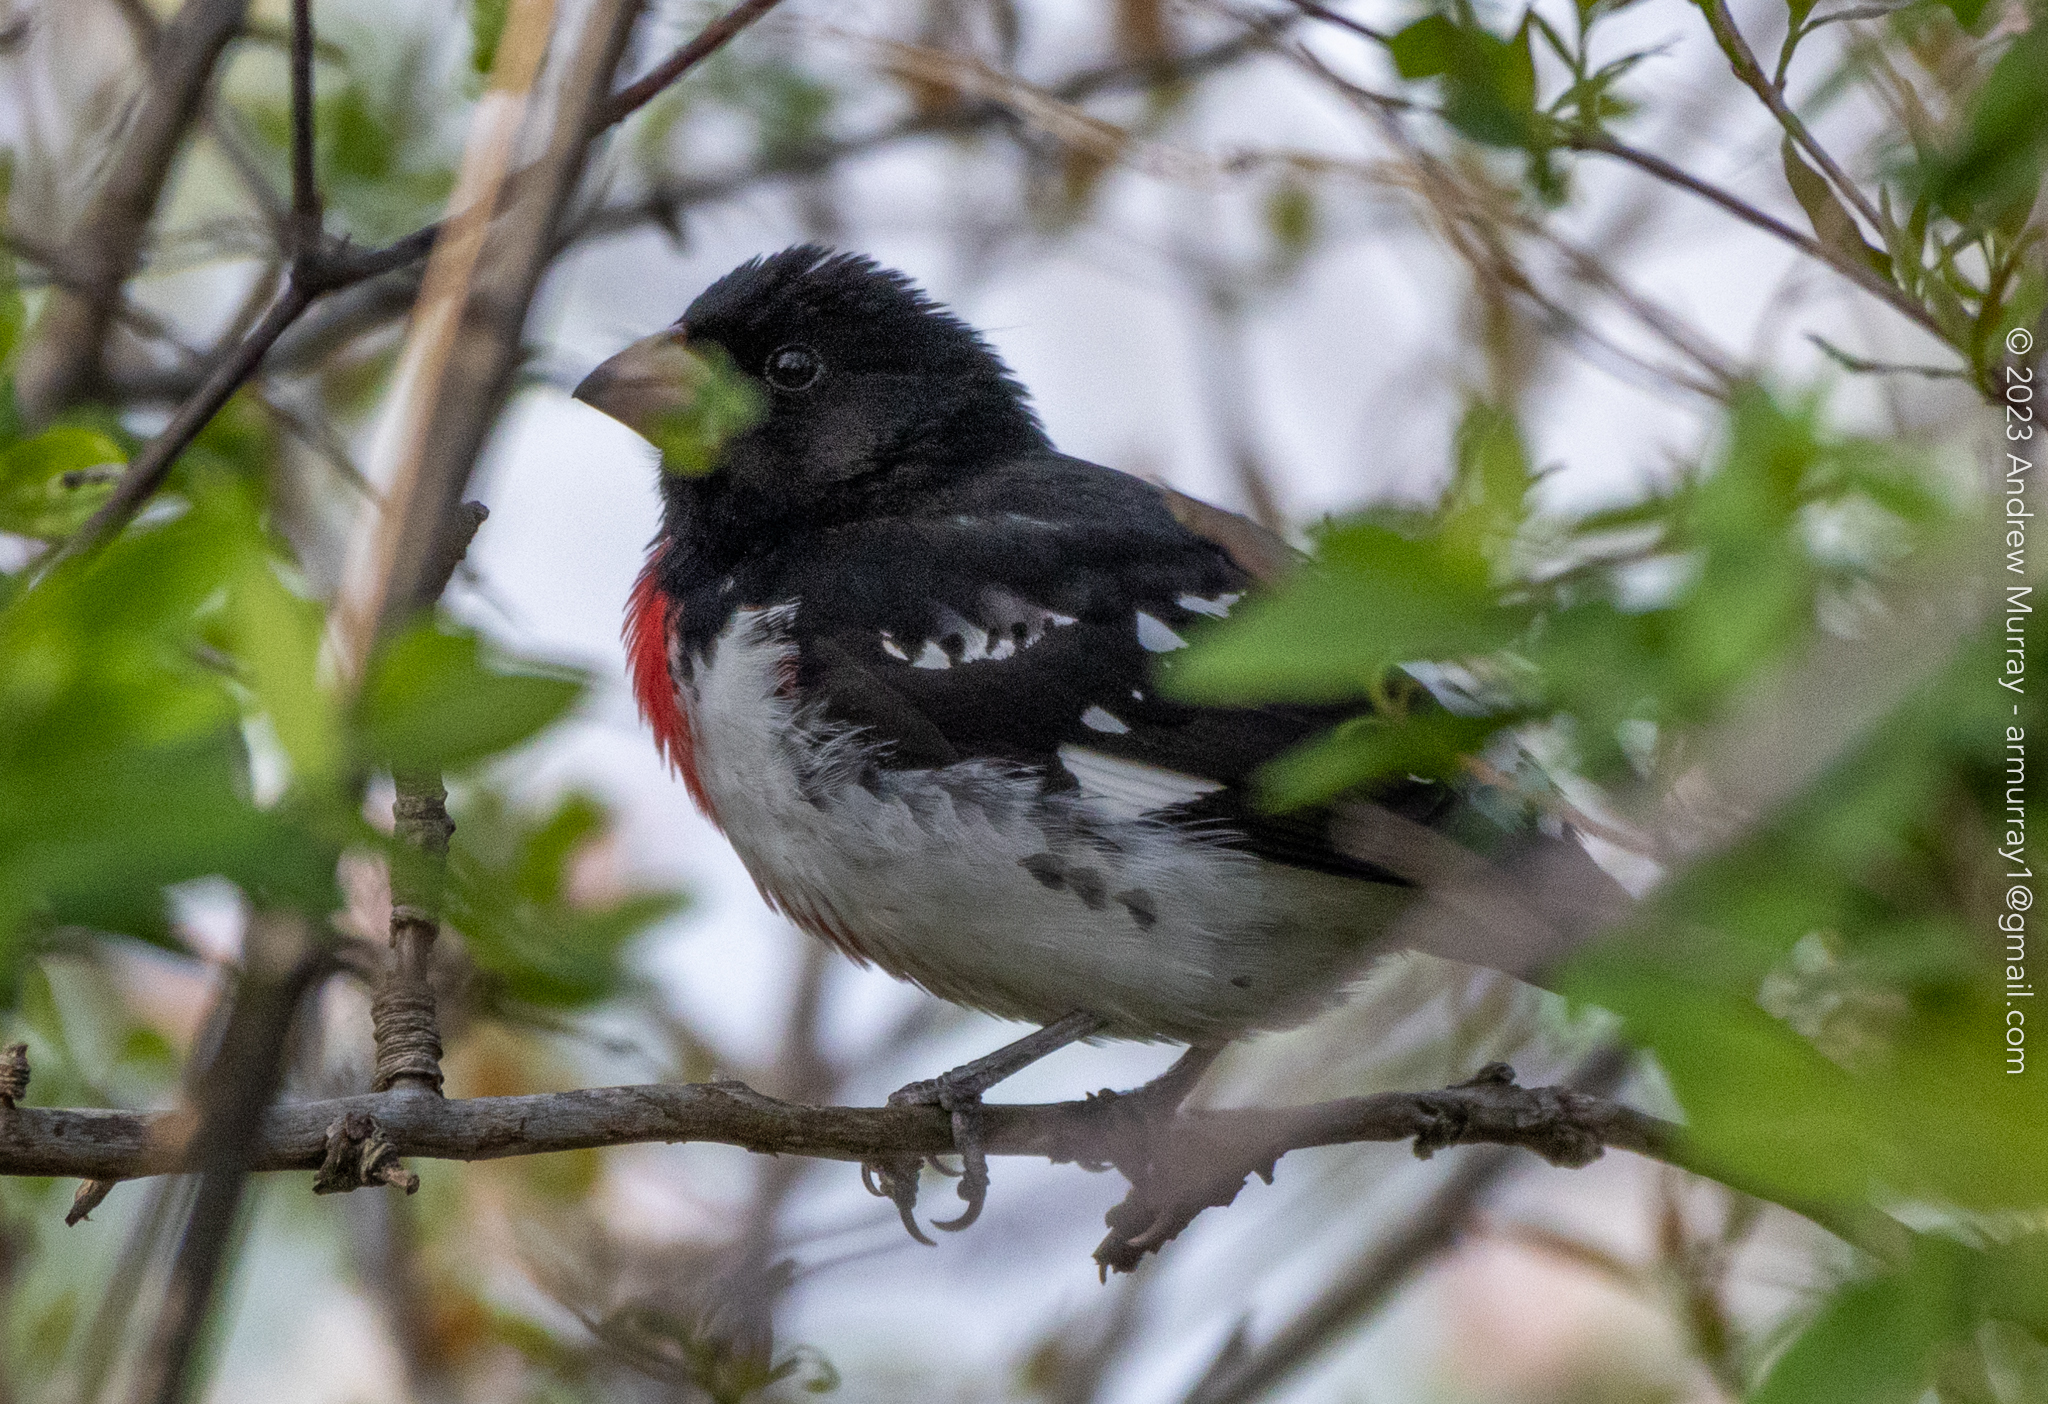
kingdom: Animalia
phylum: Chordata
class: Aves
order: Passeriformes
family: Cardinalidae
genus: Pheucticus
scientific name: Pheucticus ludovicianus
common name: Rose-breasted grosbeak
